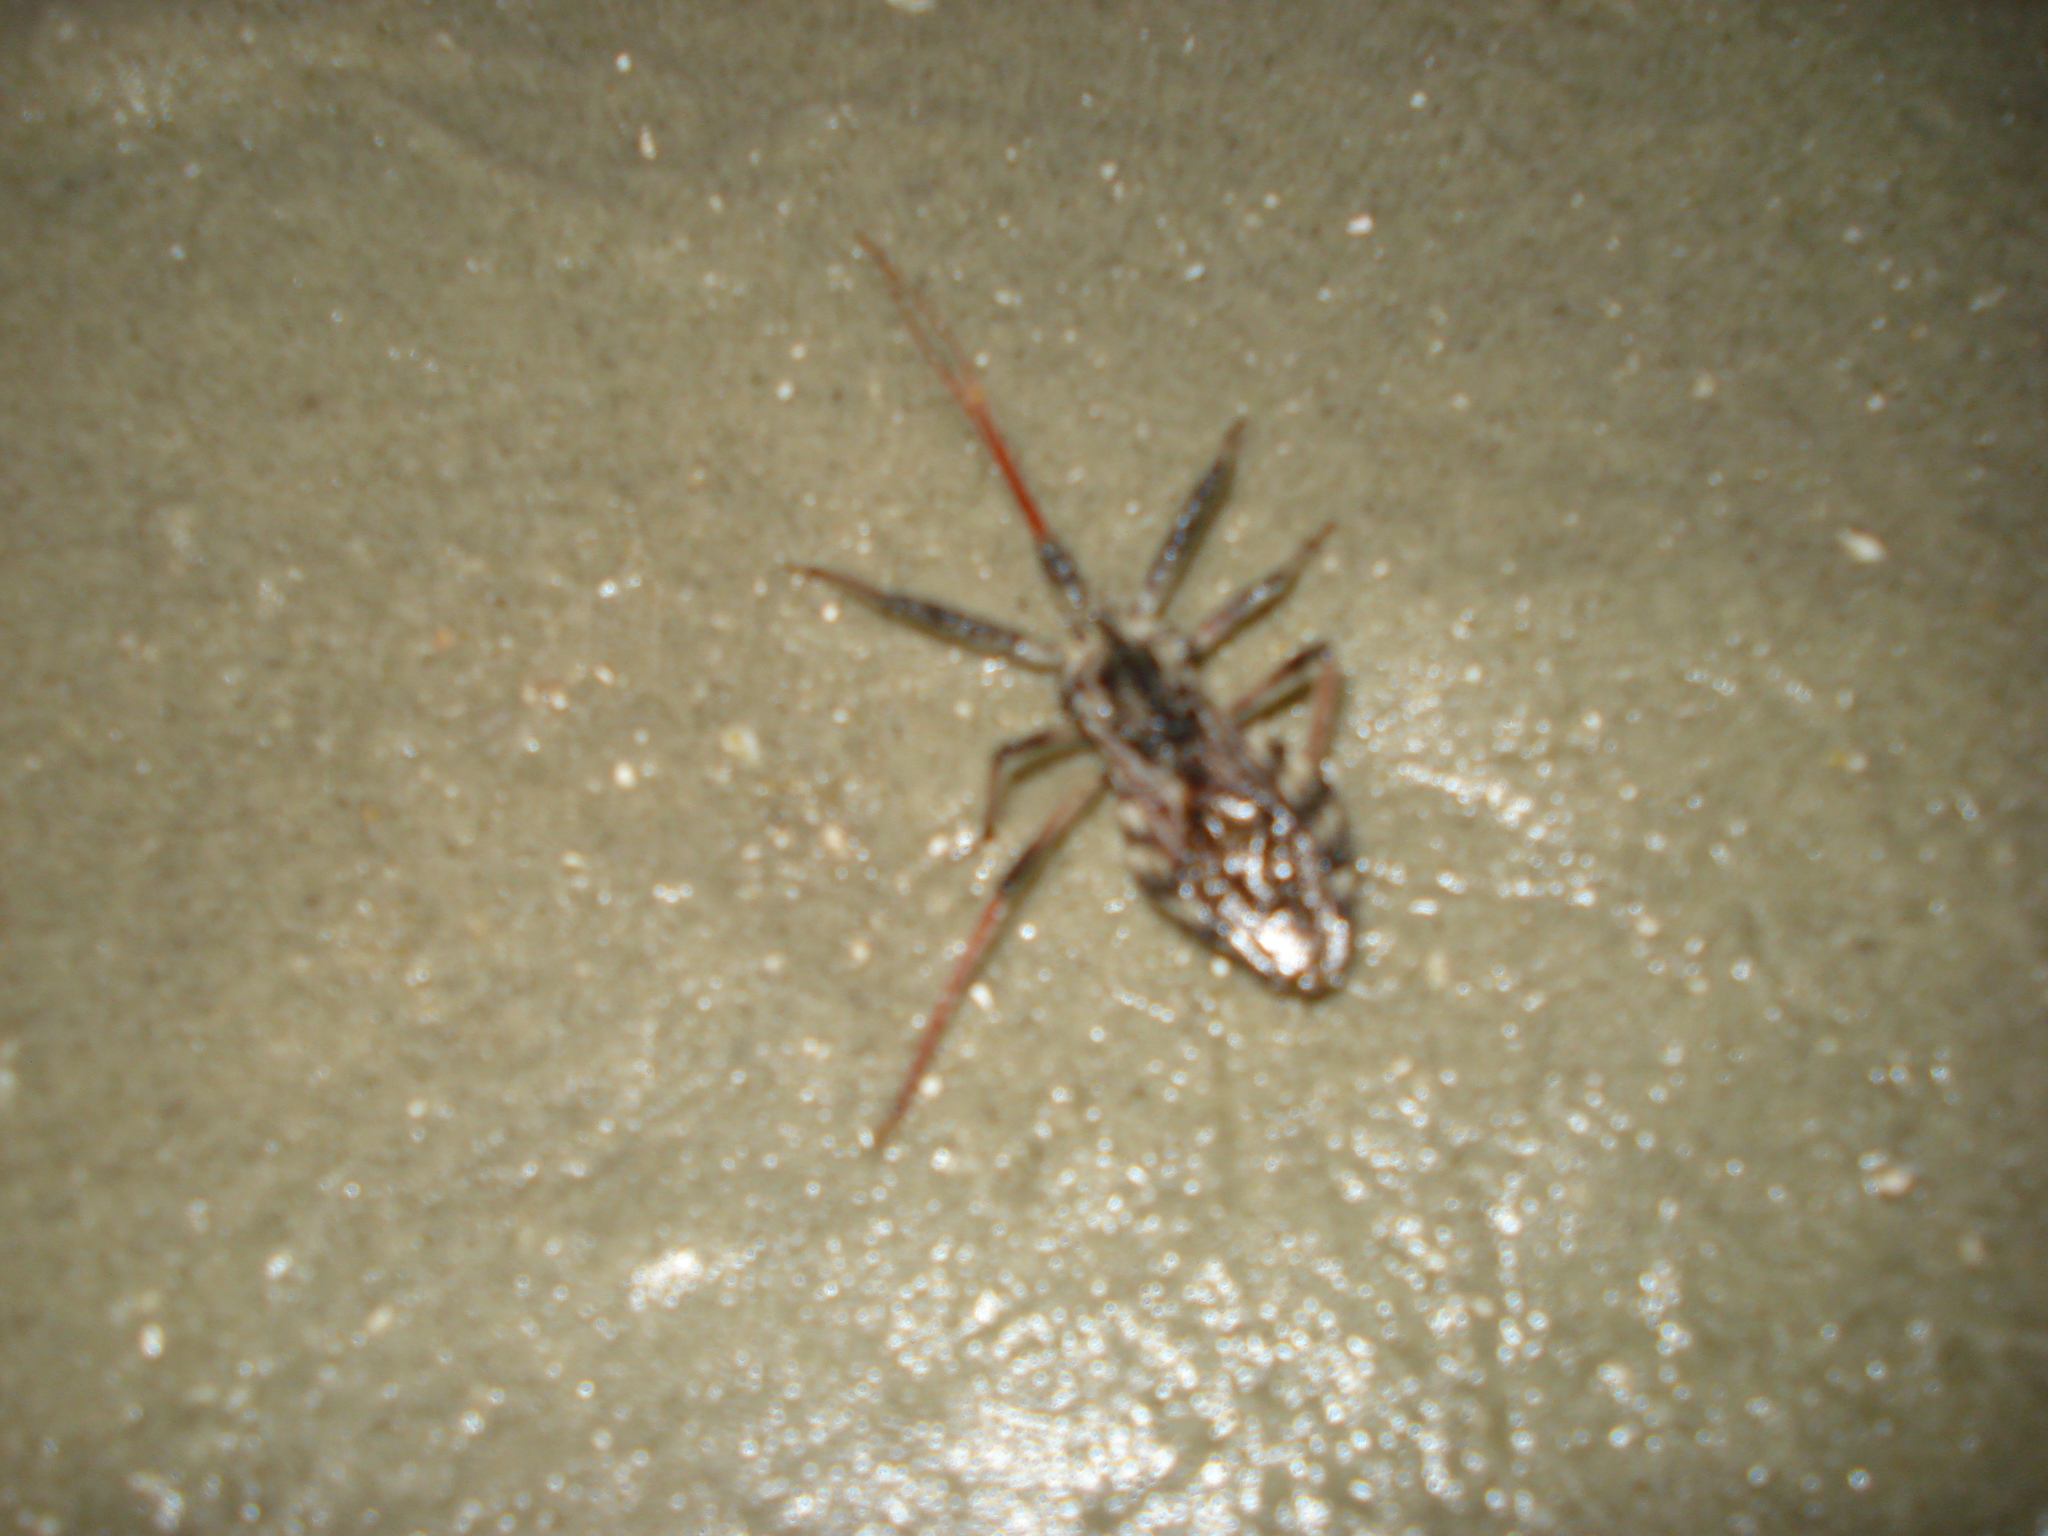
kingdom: Animalia
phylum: Arthropoda
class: Insecta
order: Hemiptera
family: Reduviidae
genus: Arilus
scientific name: Arilus cristatus
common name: North american wheel bug
